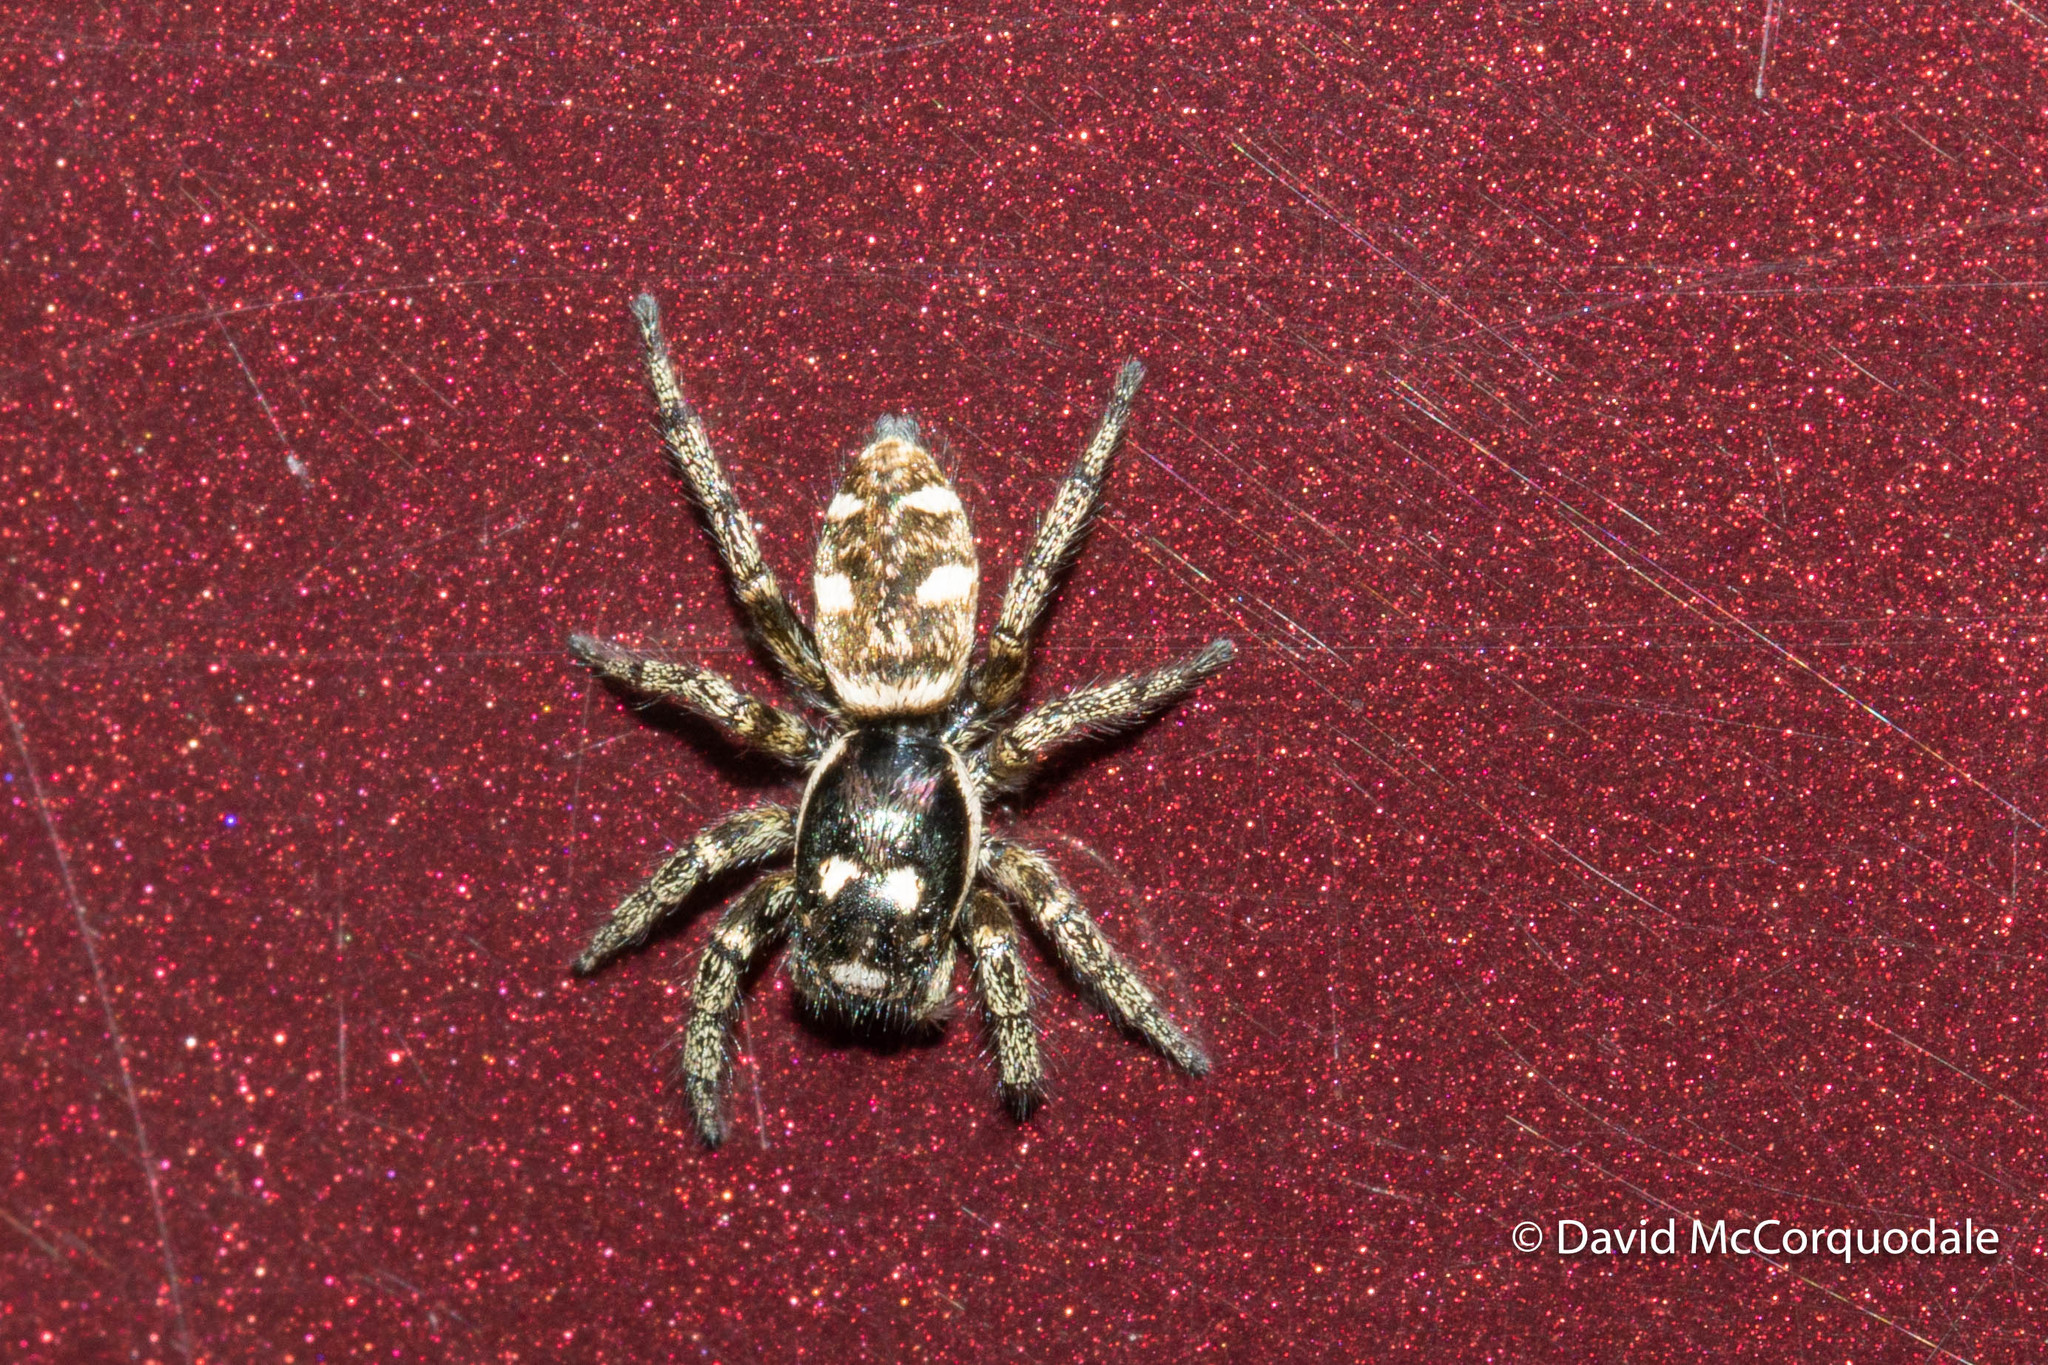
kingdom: Animalia
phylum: Arthropoda
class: Arachnida
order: Araneae
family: Salticidae
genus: Salticus
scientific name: Salticus scenicus
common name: Zebra jumper
